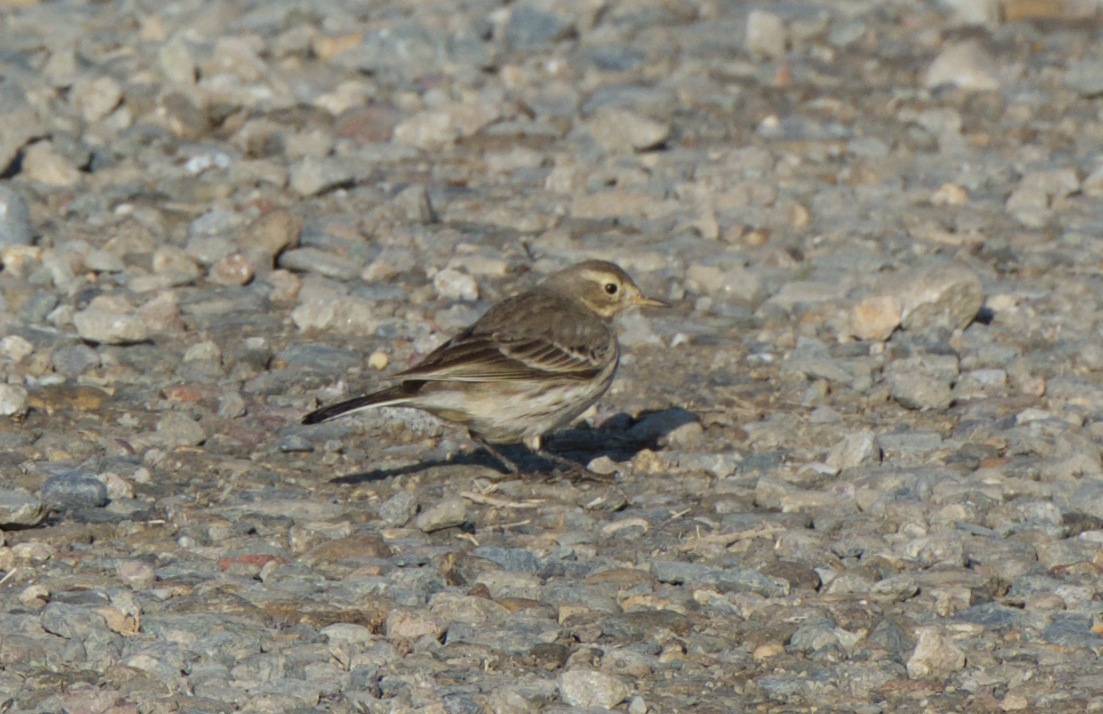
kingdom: Animalia
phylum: Chordata
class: Aves
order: Passeriformes
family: Motacillidae
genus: Anthus
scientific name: Anthus rubescens
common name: Buff-bellied pipit
